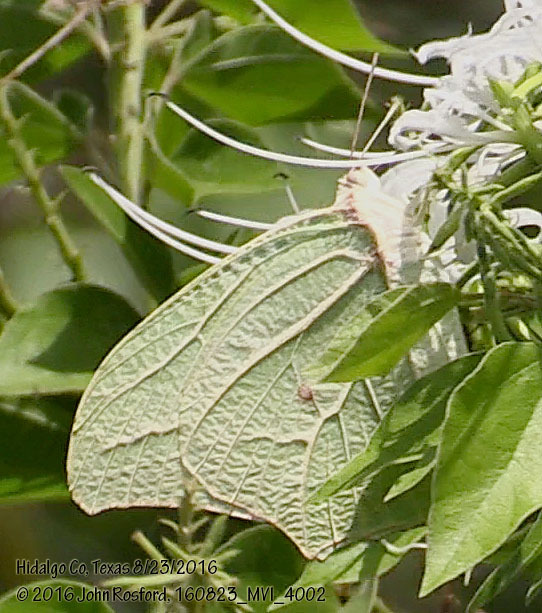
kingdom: Animalia
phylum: Arthropoda
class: Insecta
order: Lepidoptera
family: Pieridae
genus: Anteos
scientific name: Anteos clorinde
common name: White angled sulphur
